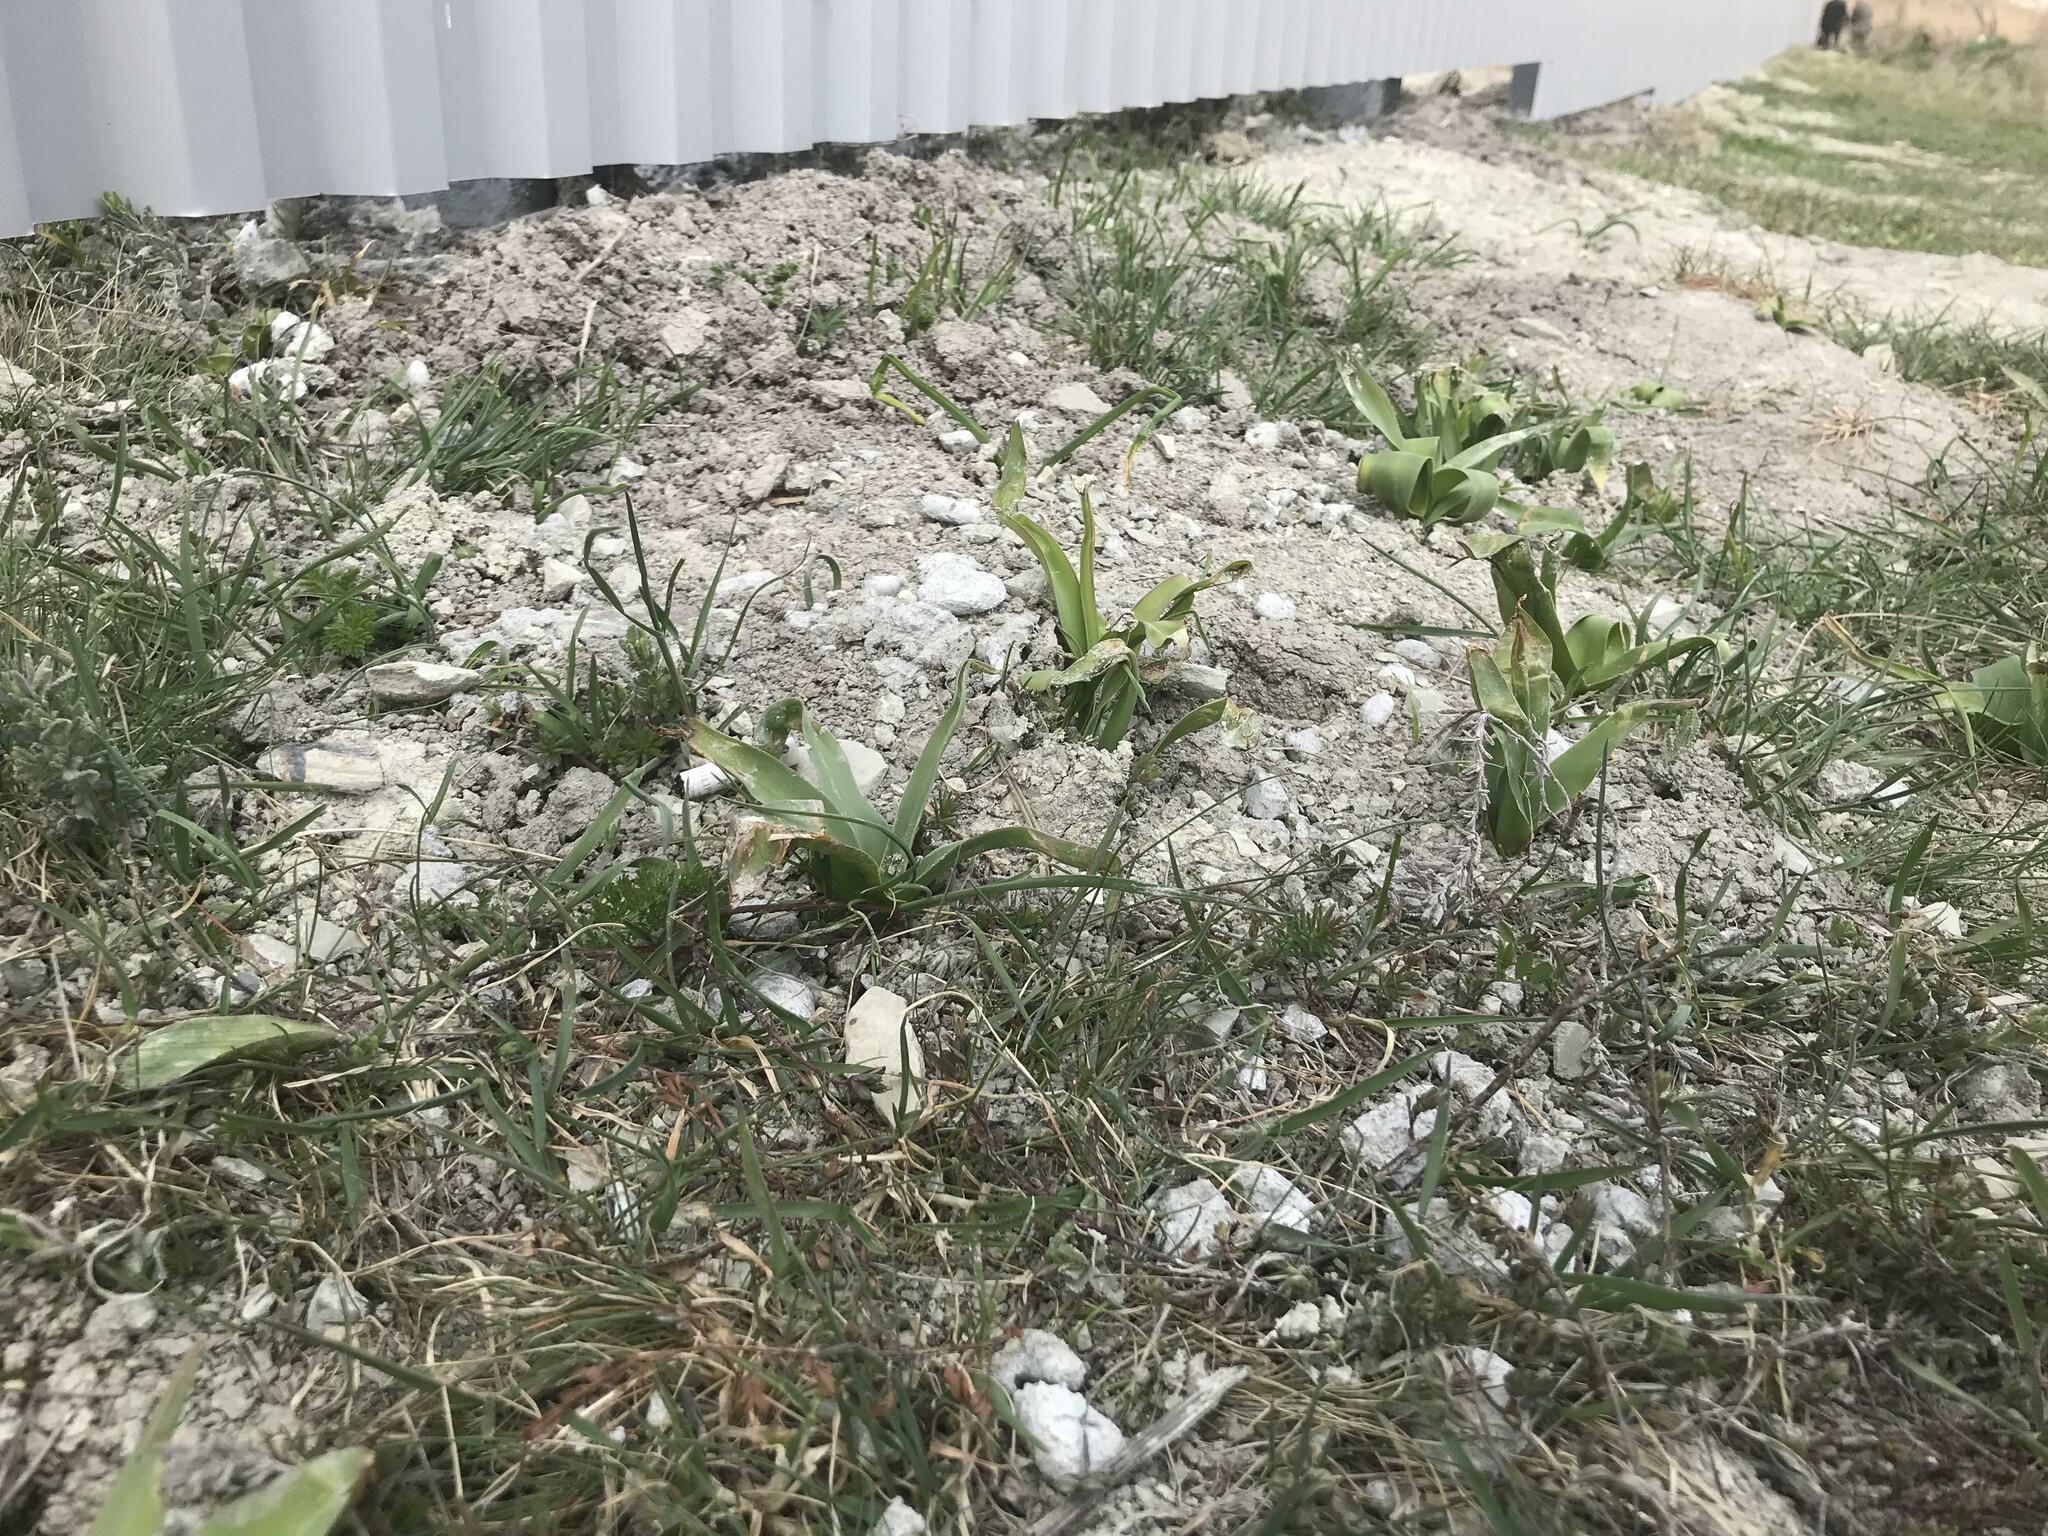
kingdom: Plantae
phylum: Tracheophyta
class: Liliopsida
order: Asparagales
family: Asparagaceae
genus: Bellevalia
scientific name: Bellevalia speciosa
